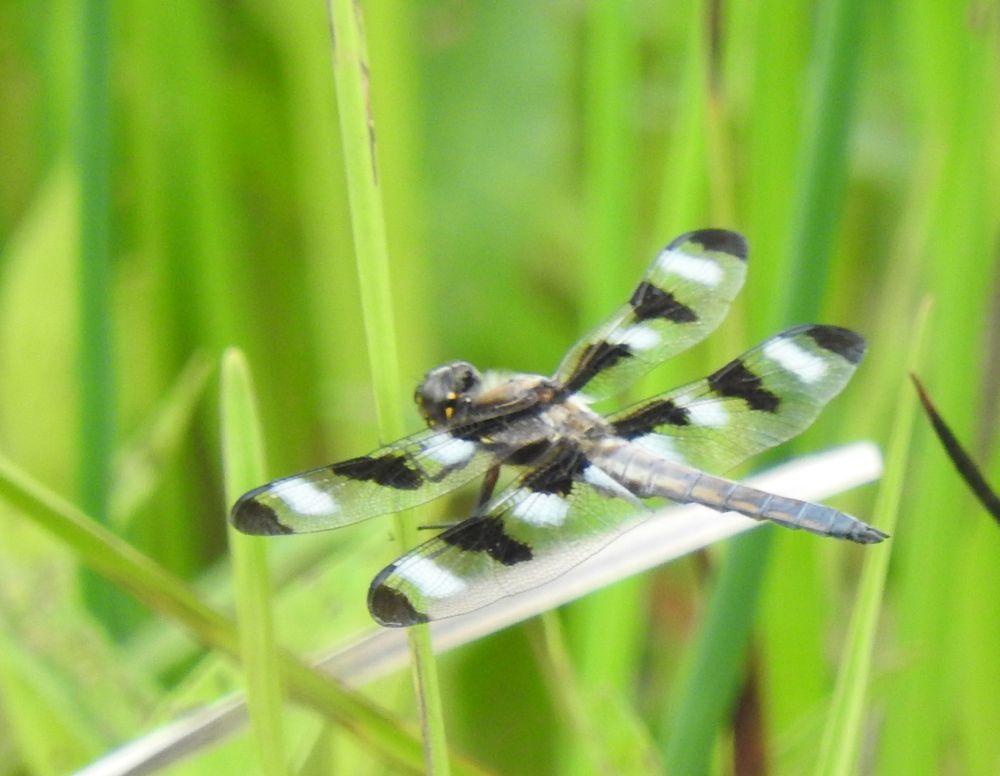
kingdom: Animalia
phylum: Arthropoda
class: Insecta
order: Odonata
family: Libellulidae
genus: Libellula
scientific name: Libellula pulchella
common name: Twelve-spotted skimmer
